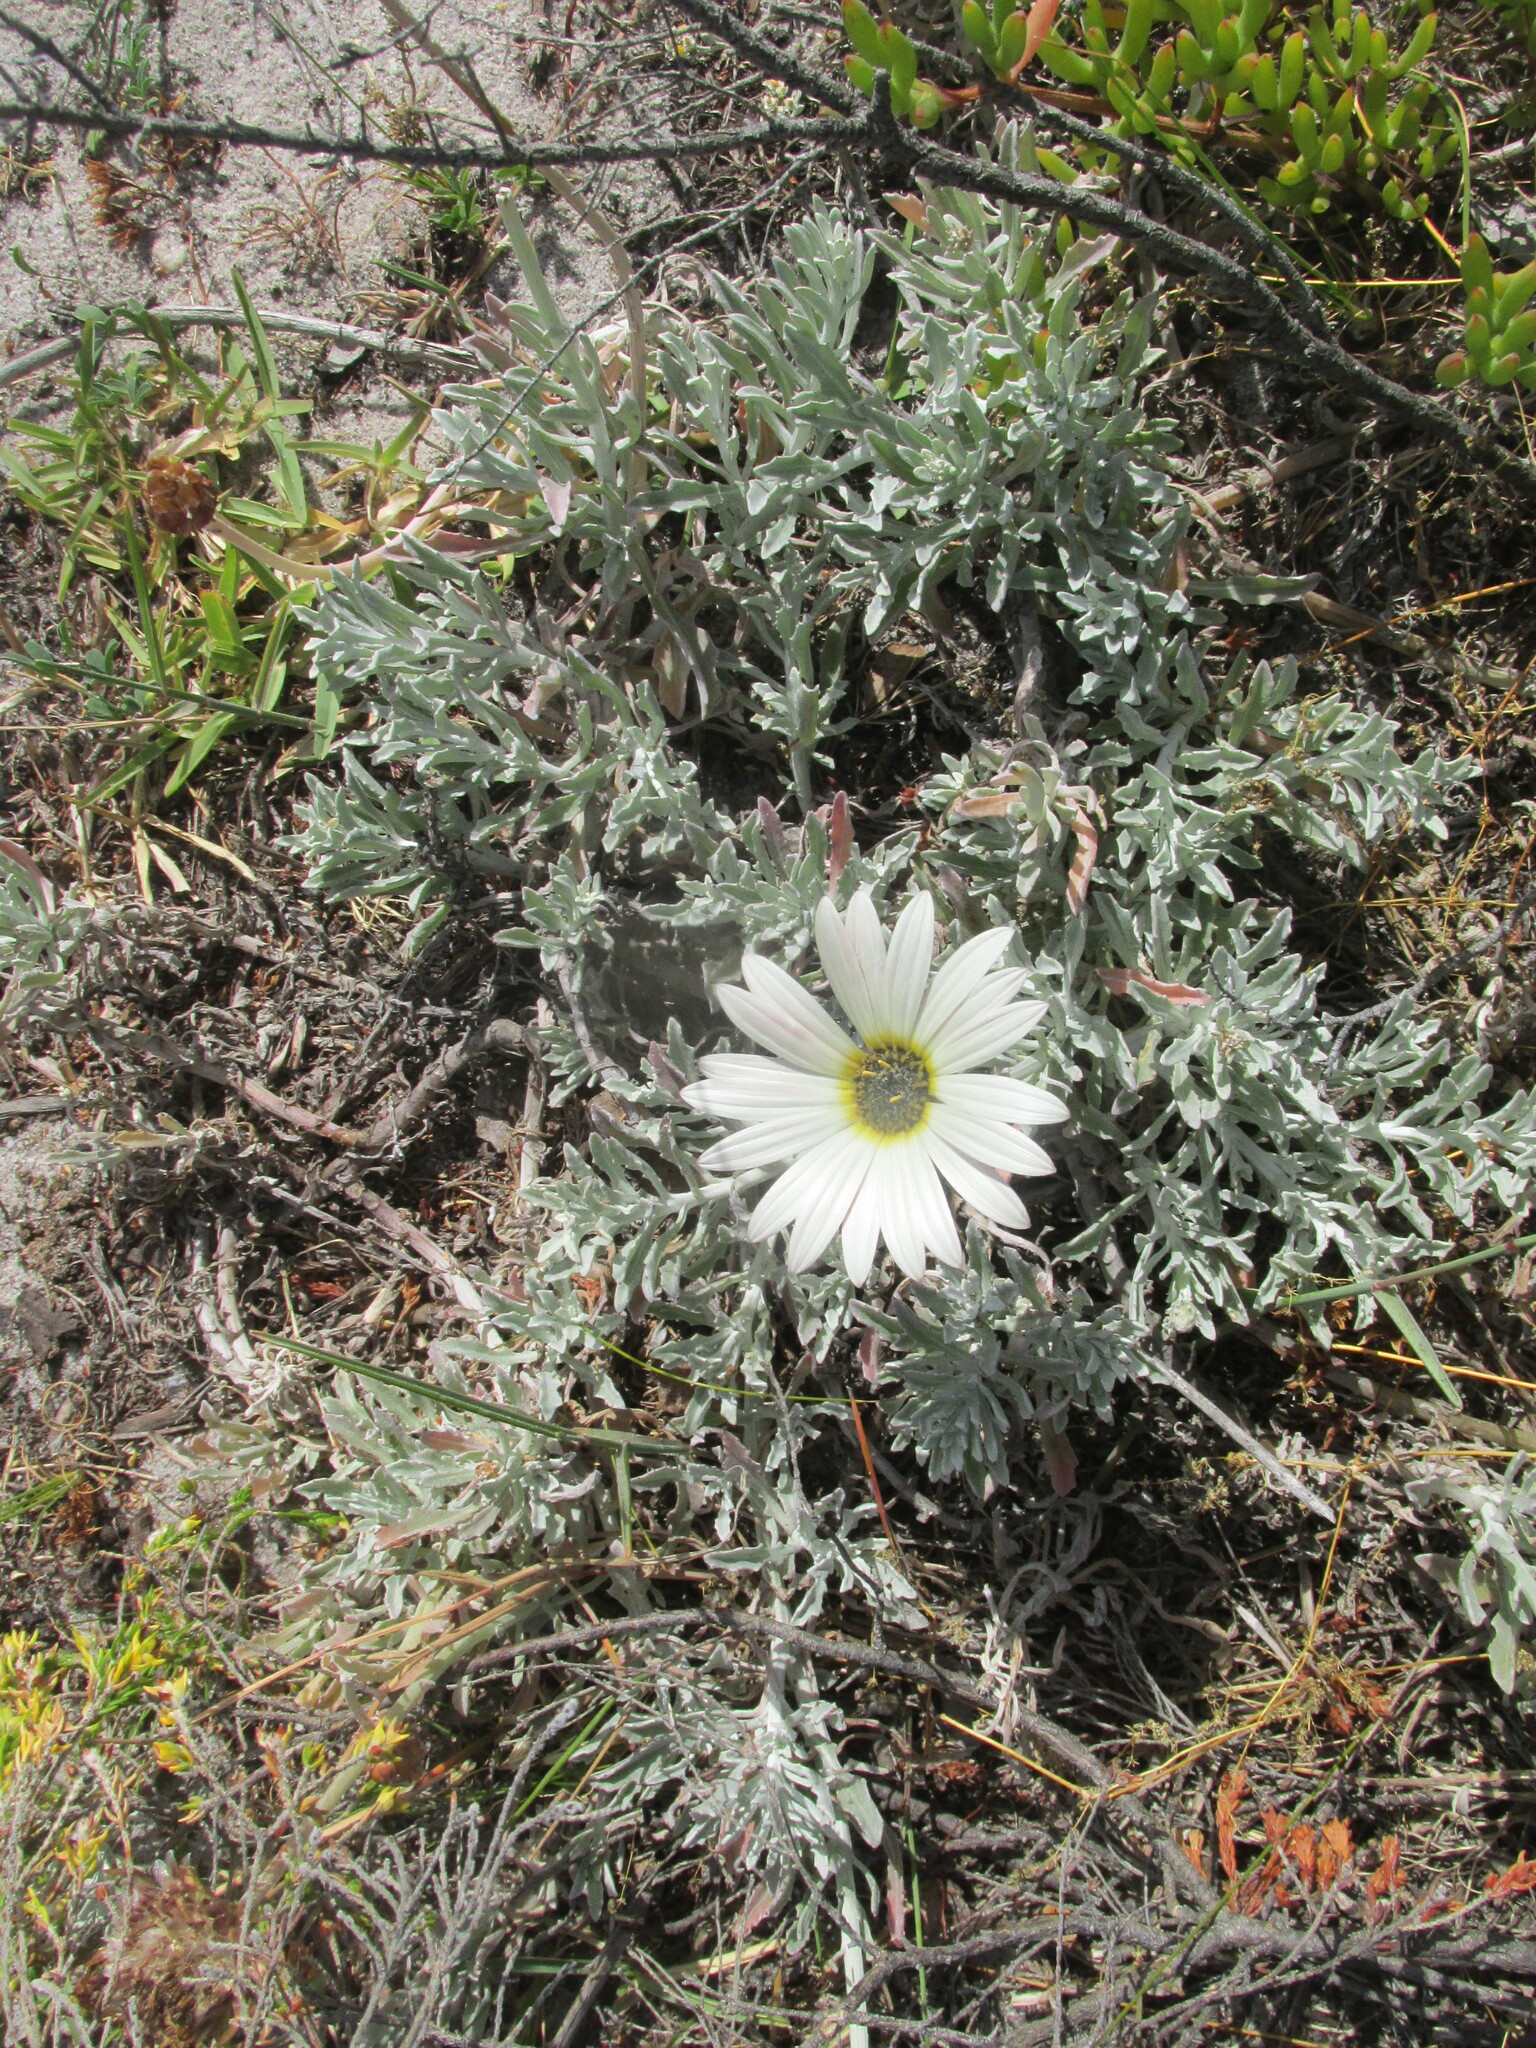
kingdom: Plantae
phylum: Tracheophyta
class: Magnoliopsida
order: Asterales
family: Asteraceae
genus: Arctotis
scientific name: Arctotis stoechadifolia
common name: African daisy
